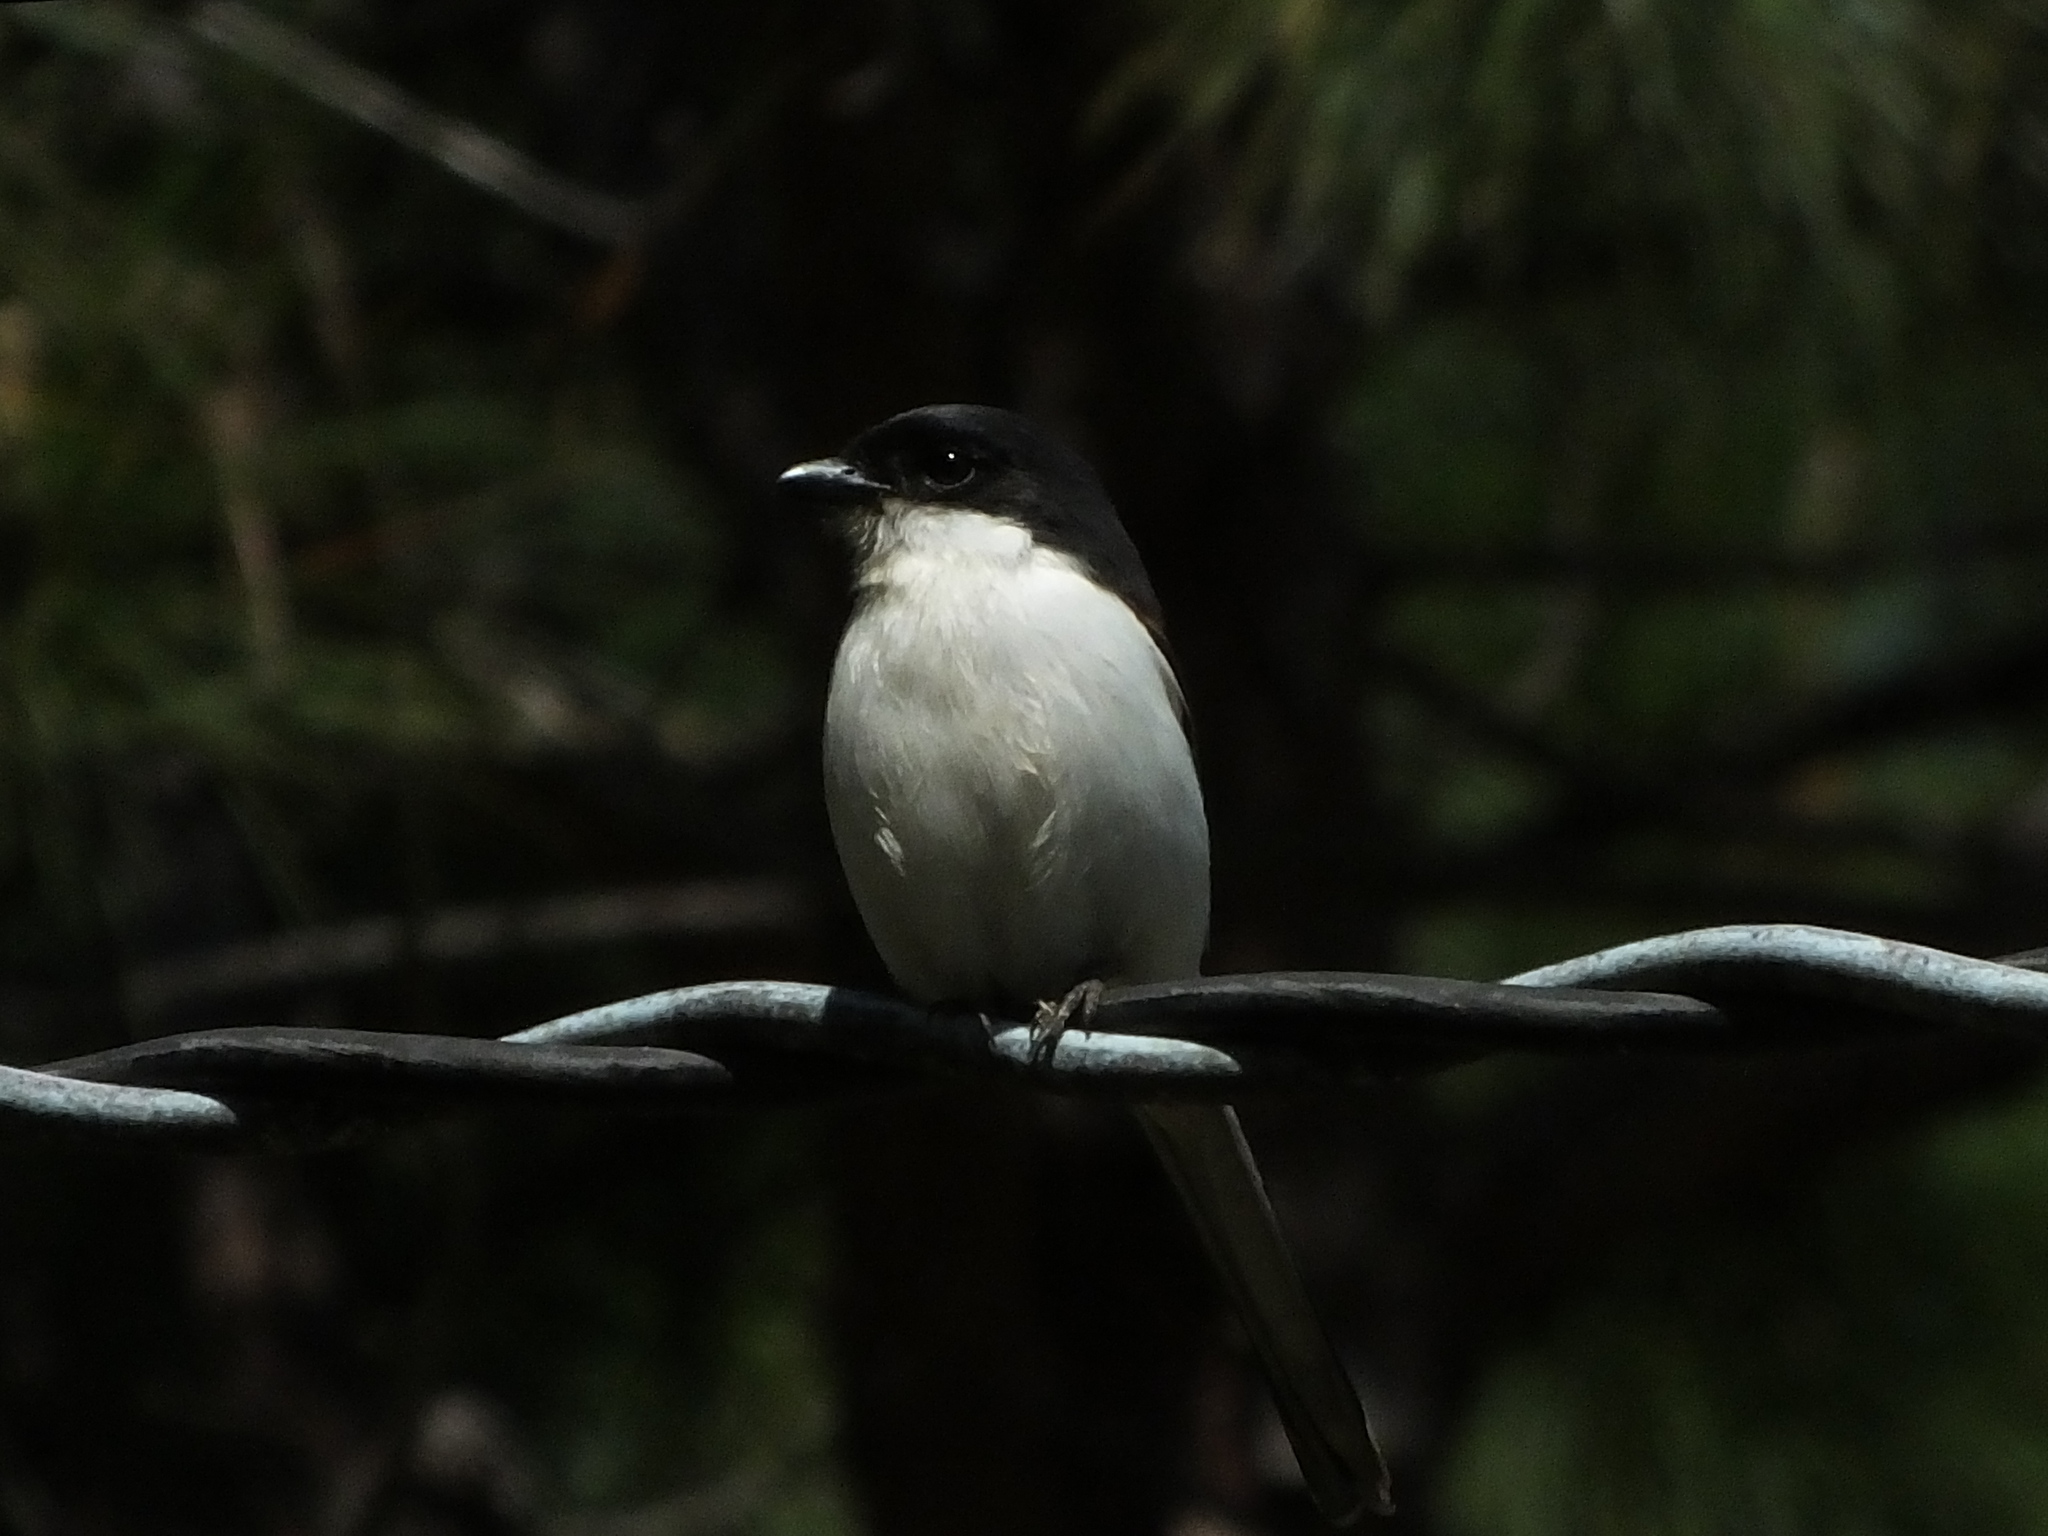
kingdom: Animalia
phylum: Chordata
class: Aves
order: Passeriformes
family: Laniidae
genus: Lanius
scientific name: Lanius collurioides
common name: Burmese shrike
